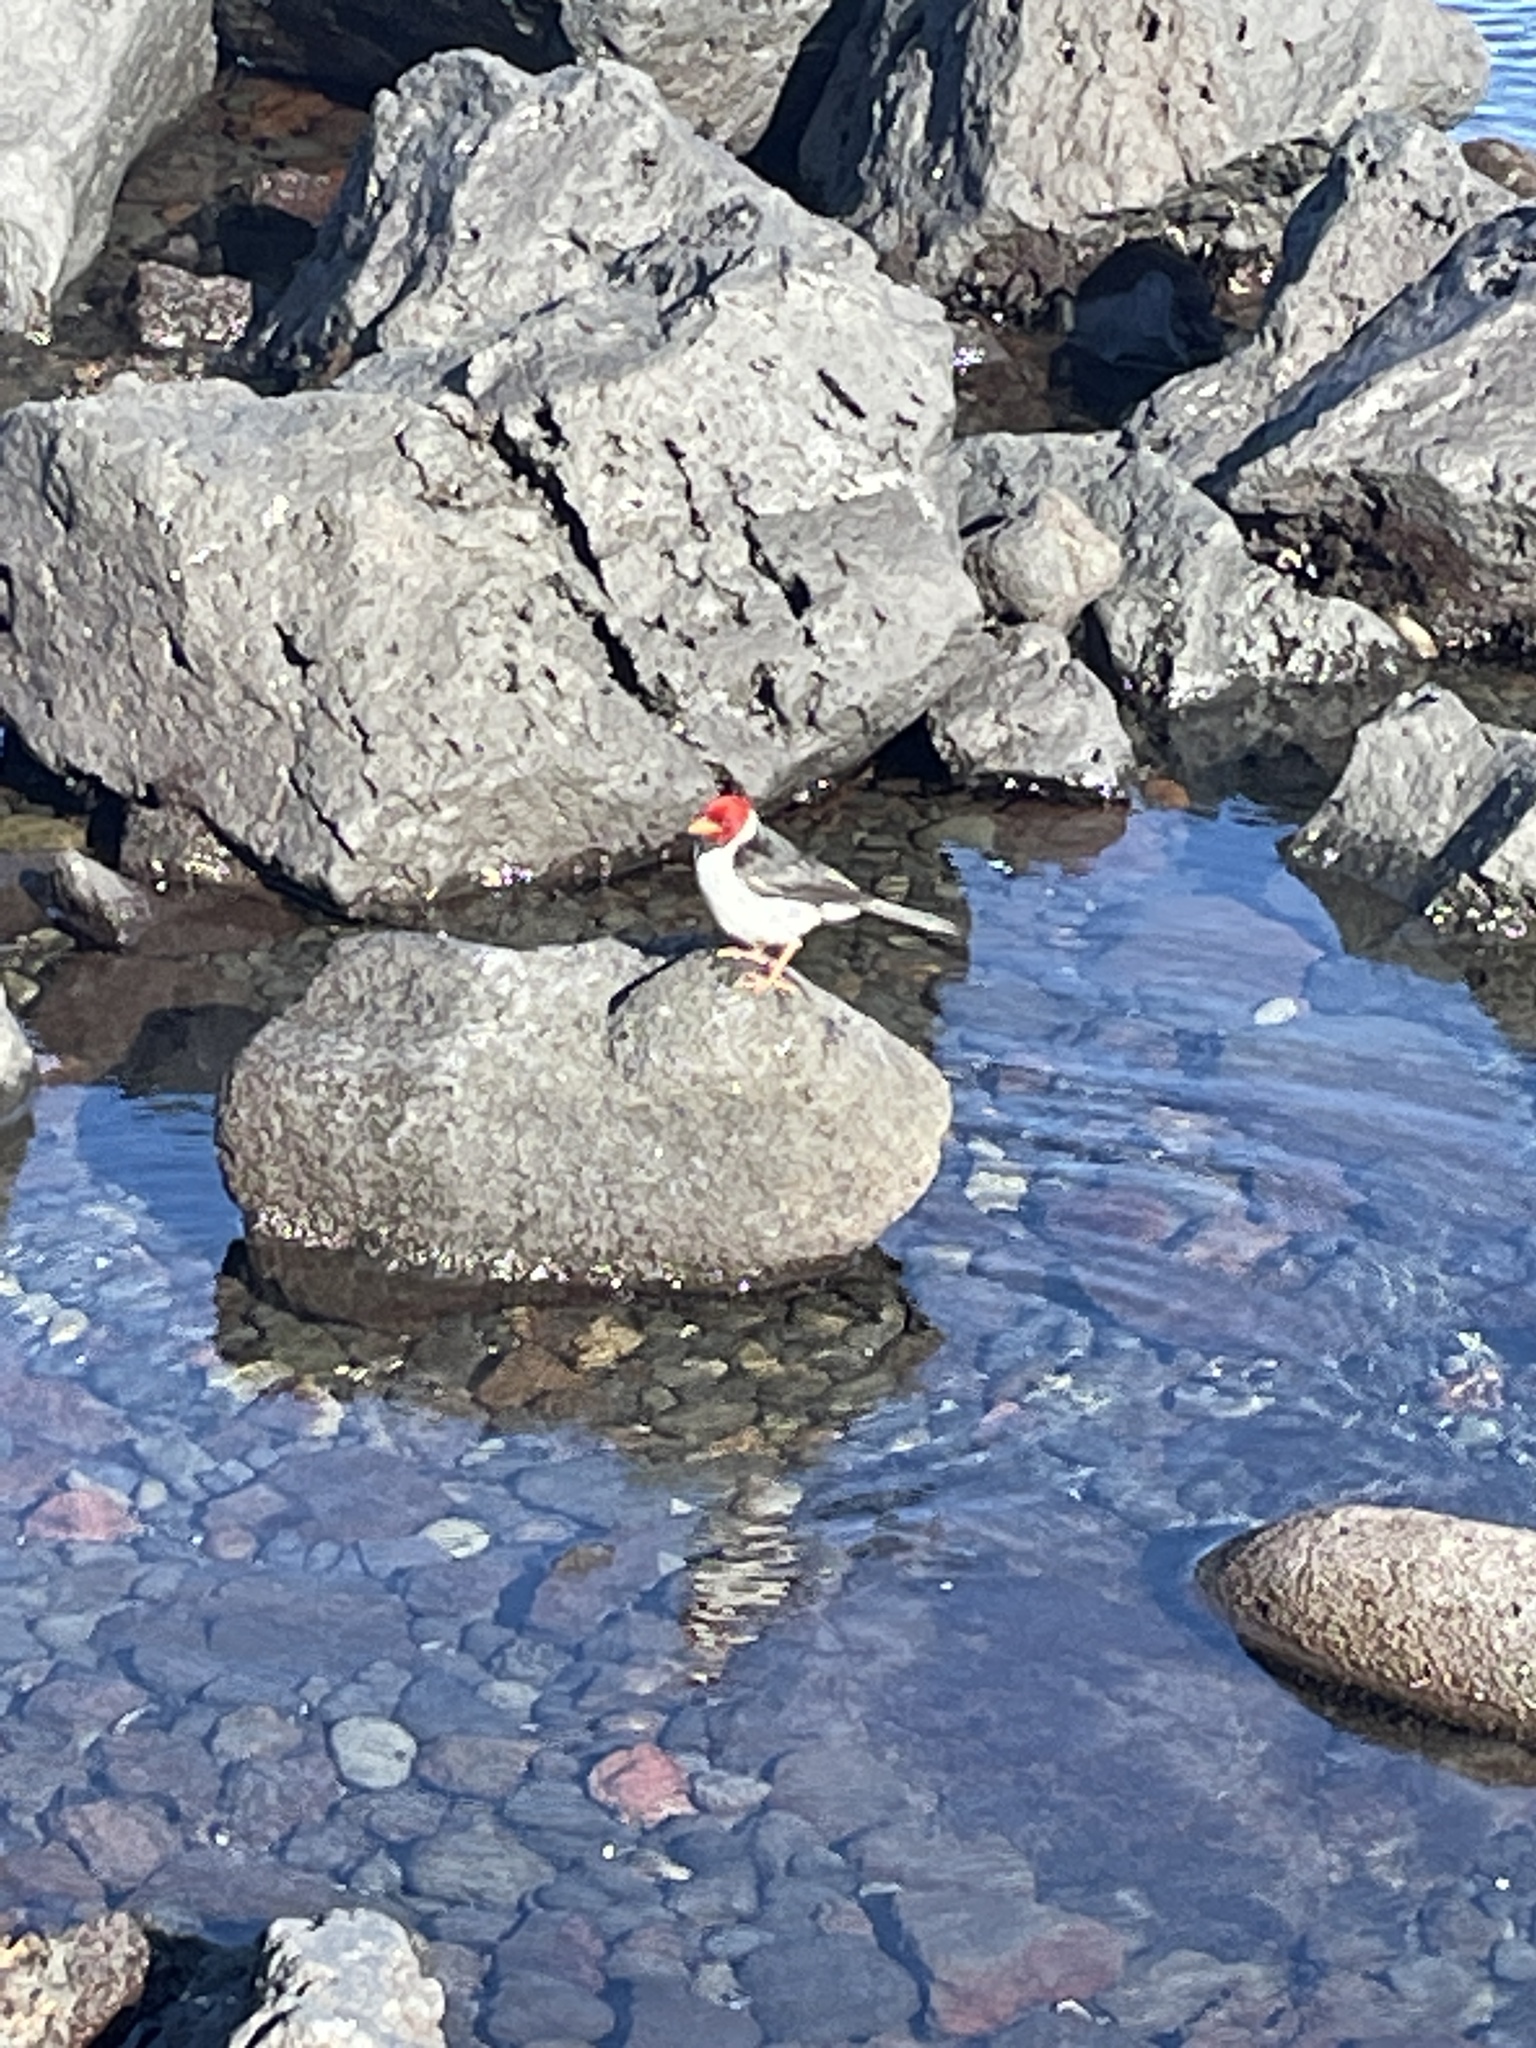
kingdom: Animalia
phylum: Chordata
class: Aves
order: Passeriformes
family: Thraupidae
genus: Paroaria
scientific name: Paroaria capitata
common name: Yellow-billed cardinal
